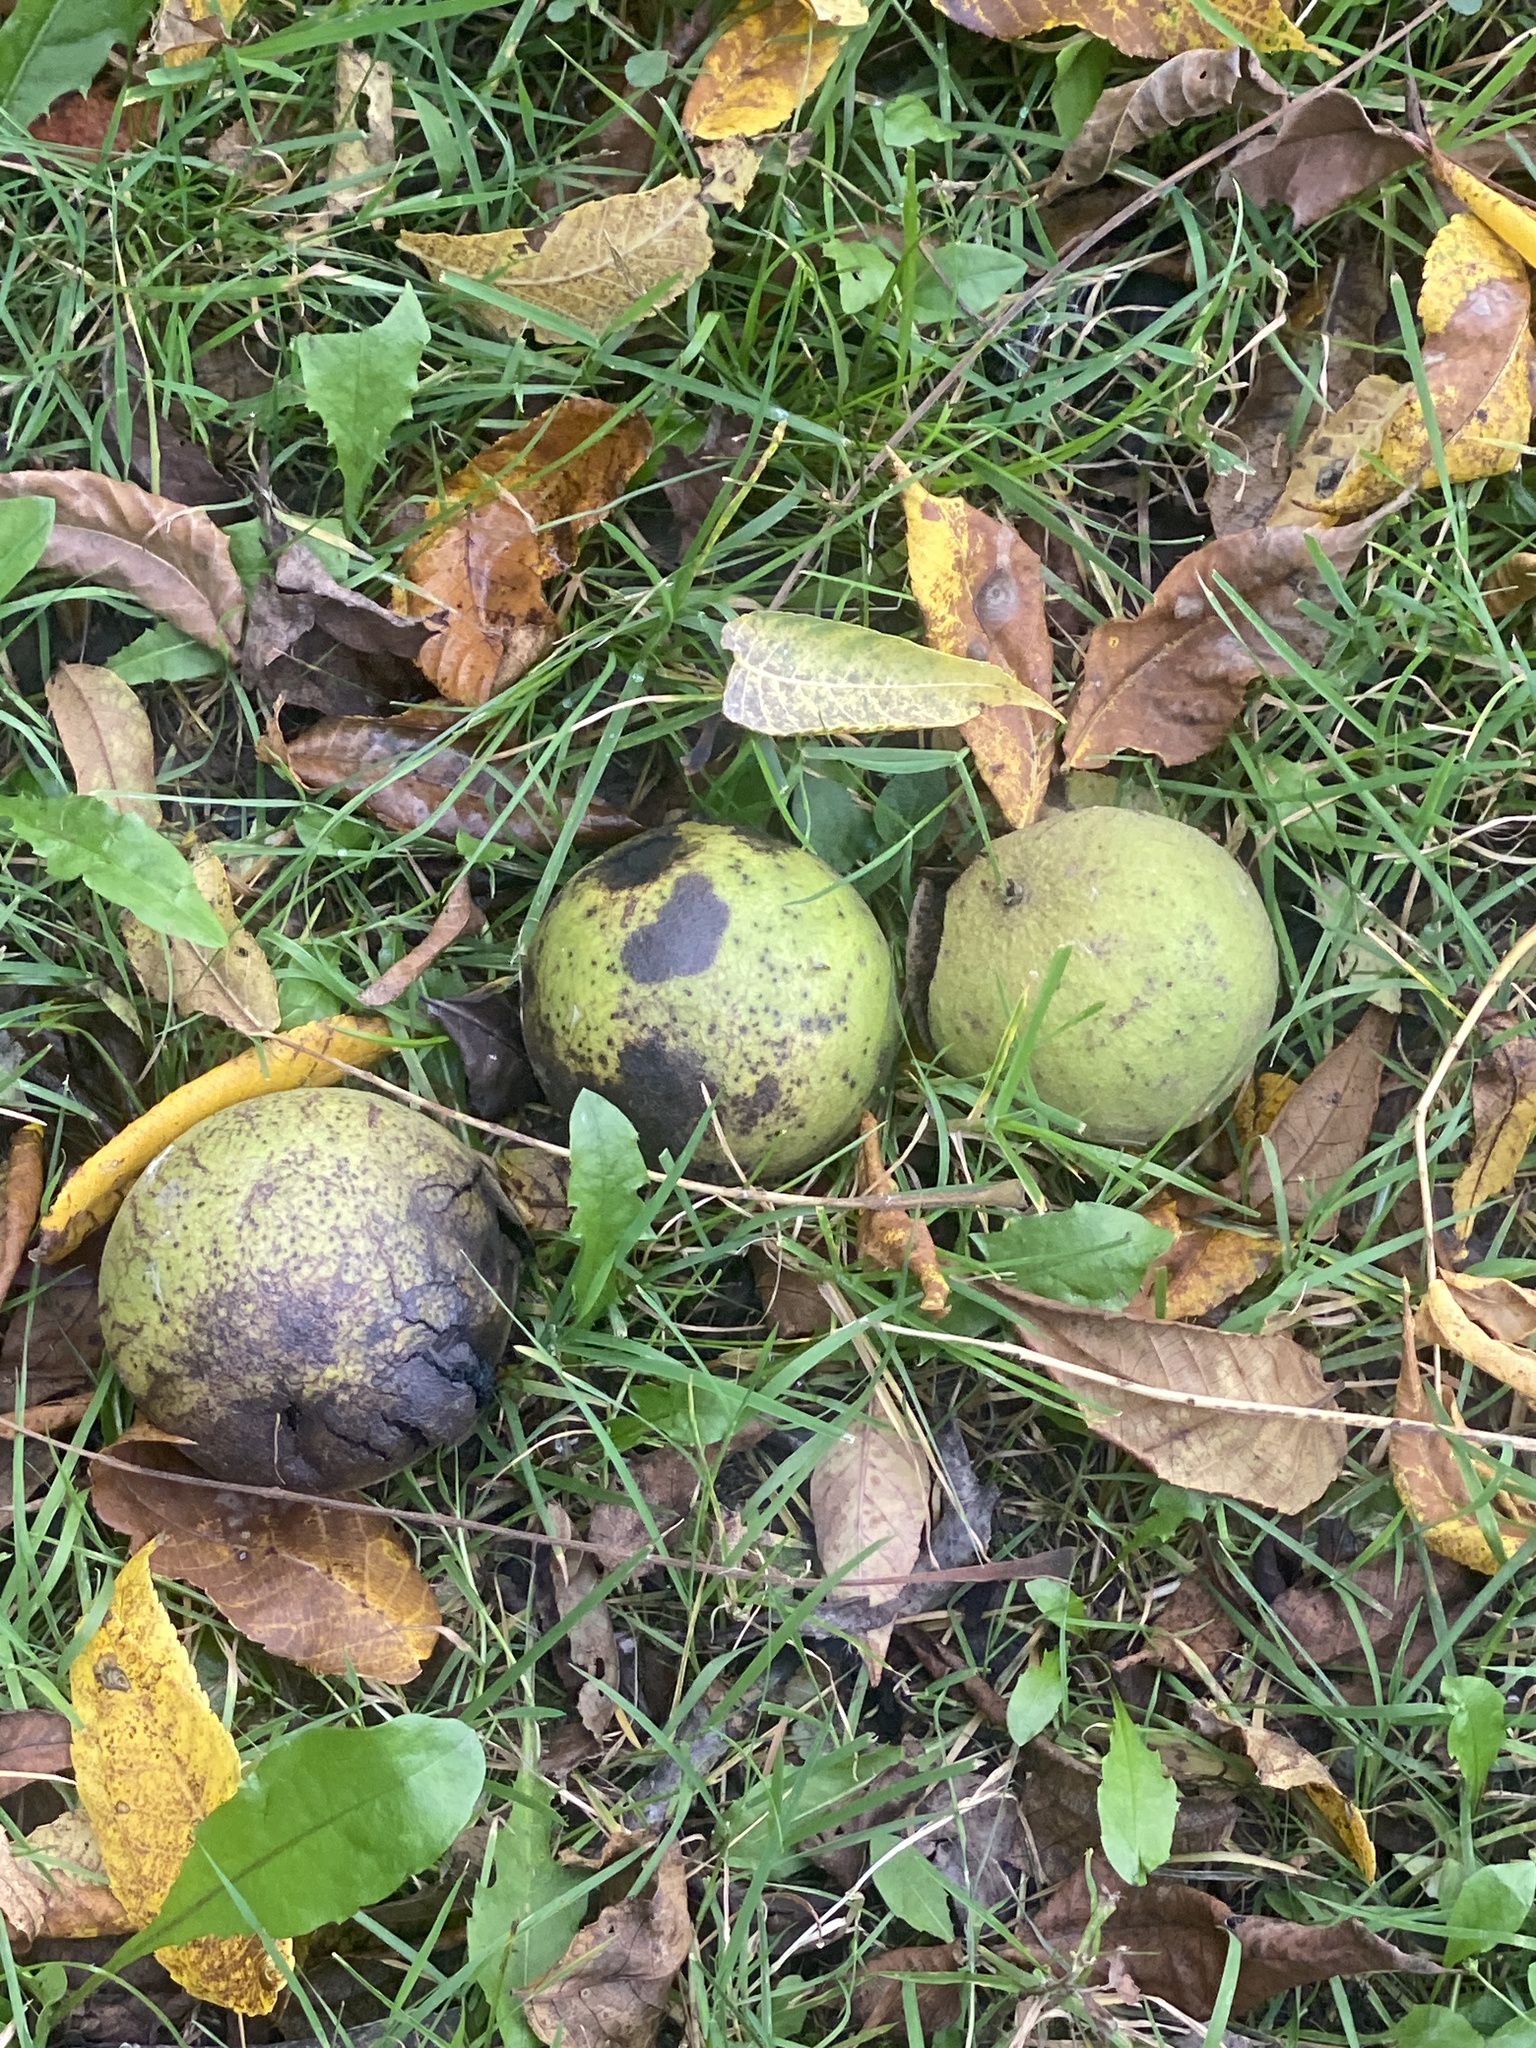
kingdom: Plantae
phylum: Tracheophyta
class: Magnoliopsida
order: Fagales
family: Juglandaceae
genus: Juglans
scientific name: Juglans nigra
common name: Black walnut
